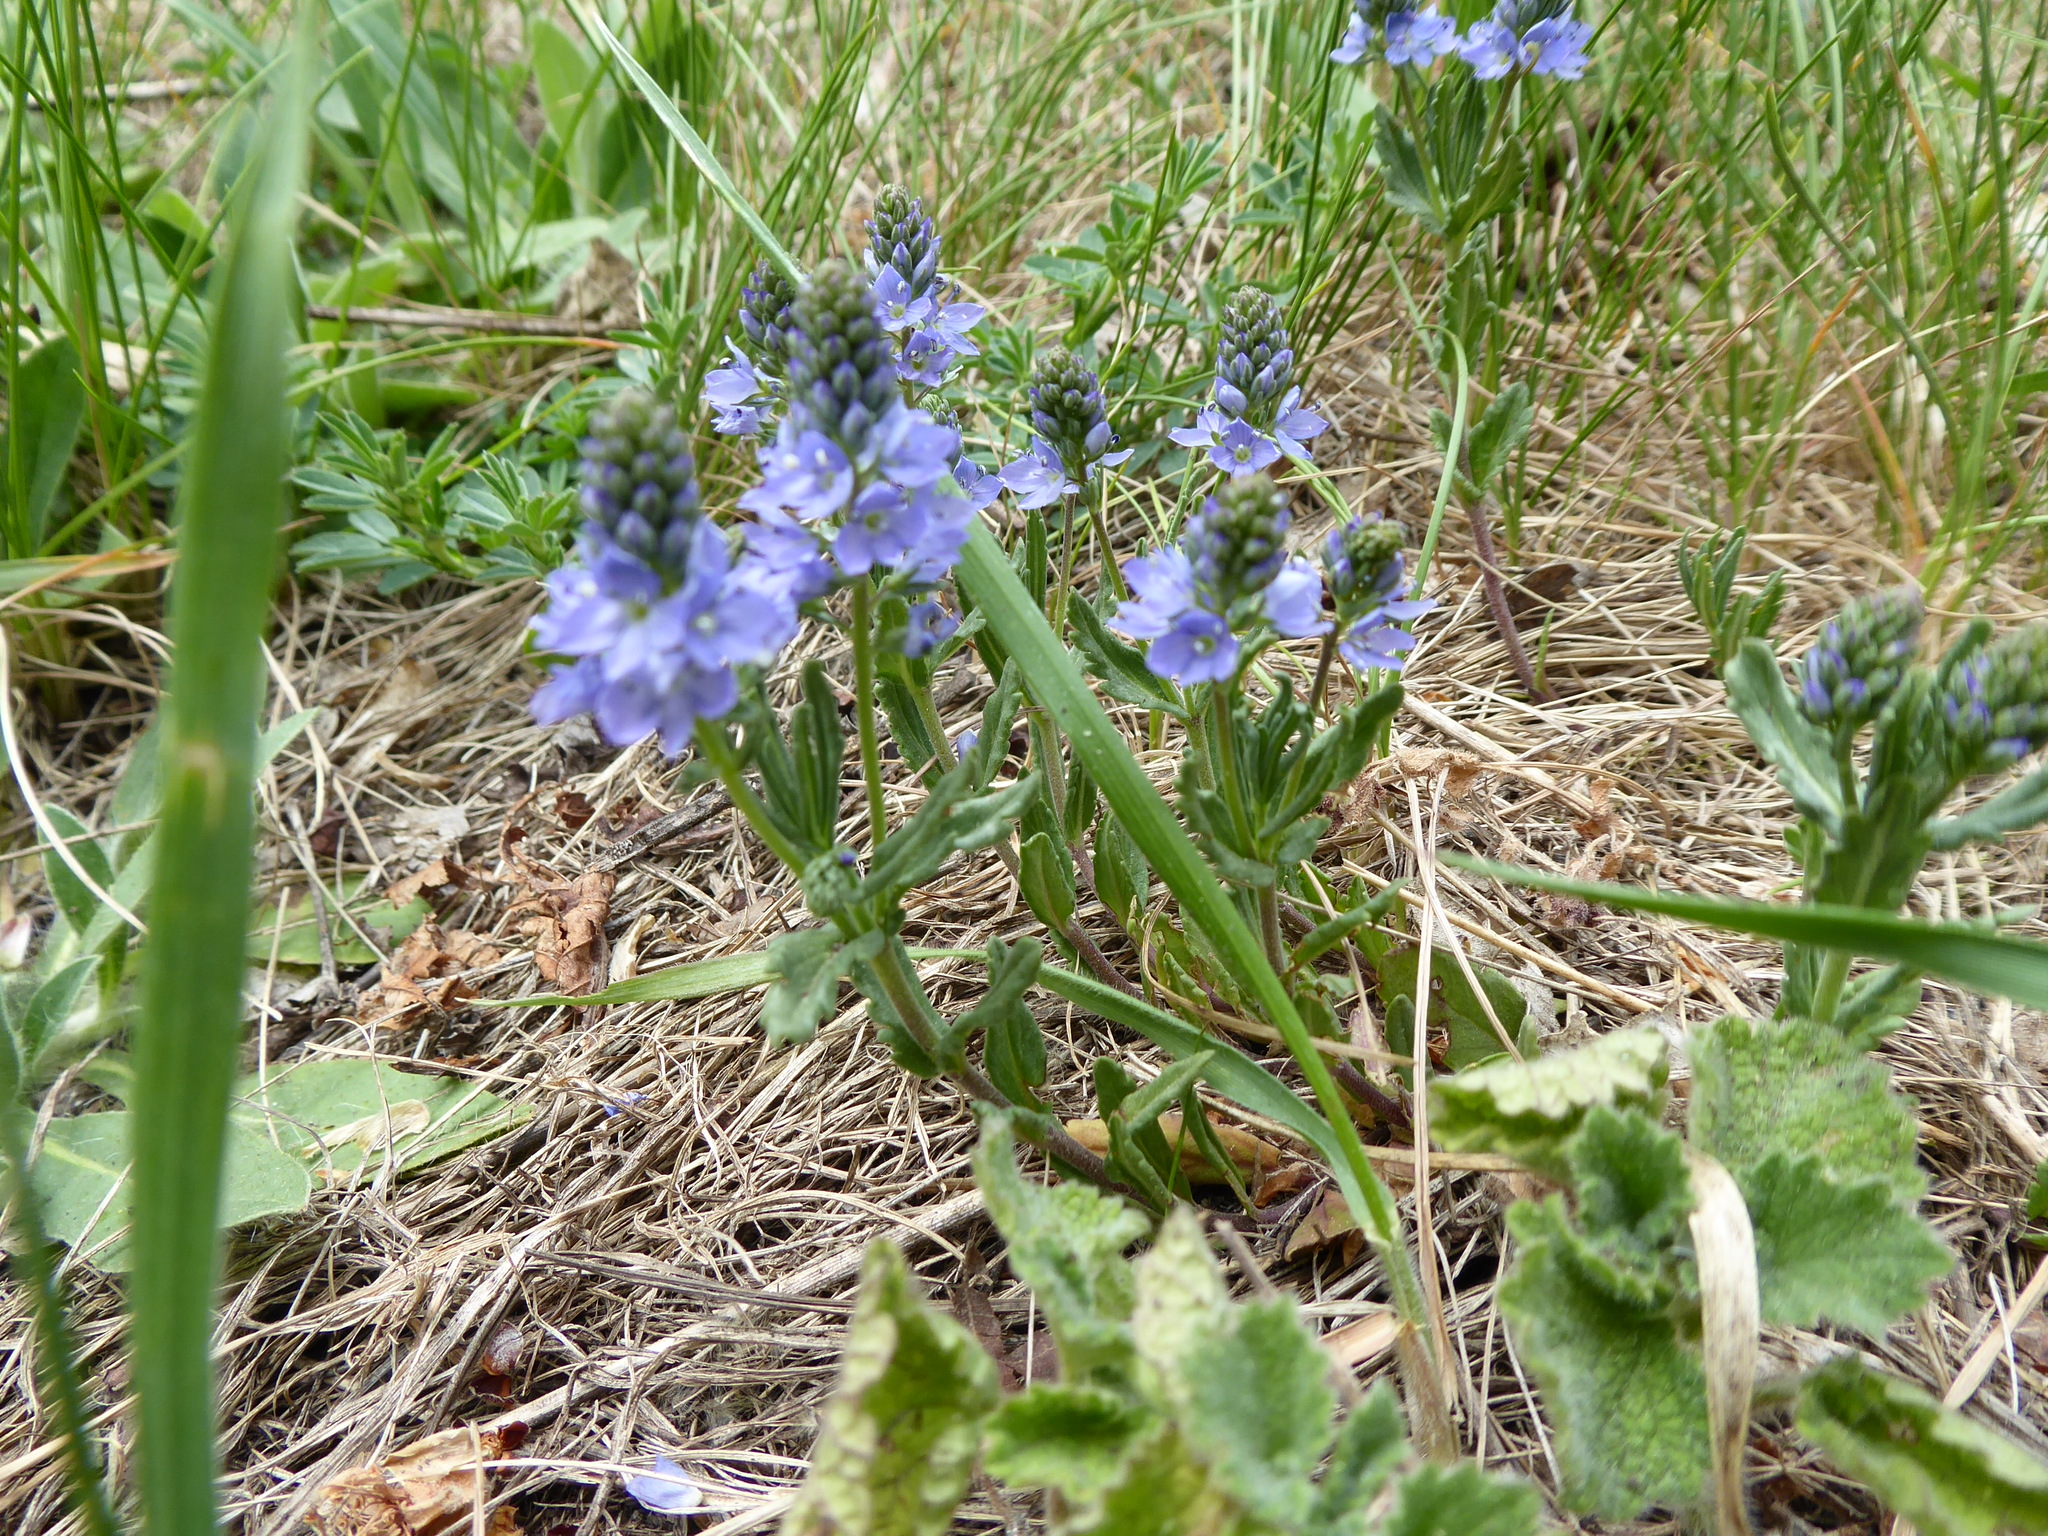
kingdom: Plantae
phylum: Tracheophyta
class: Magnoliopsida
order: Lamiales
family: Plantaginaceae
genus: Veronica
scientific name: Veronica prostrata
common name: Prostrate speedwell
